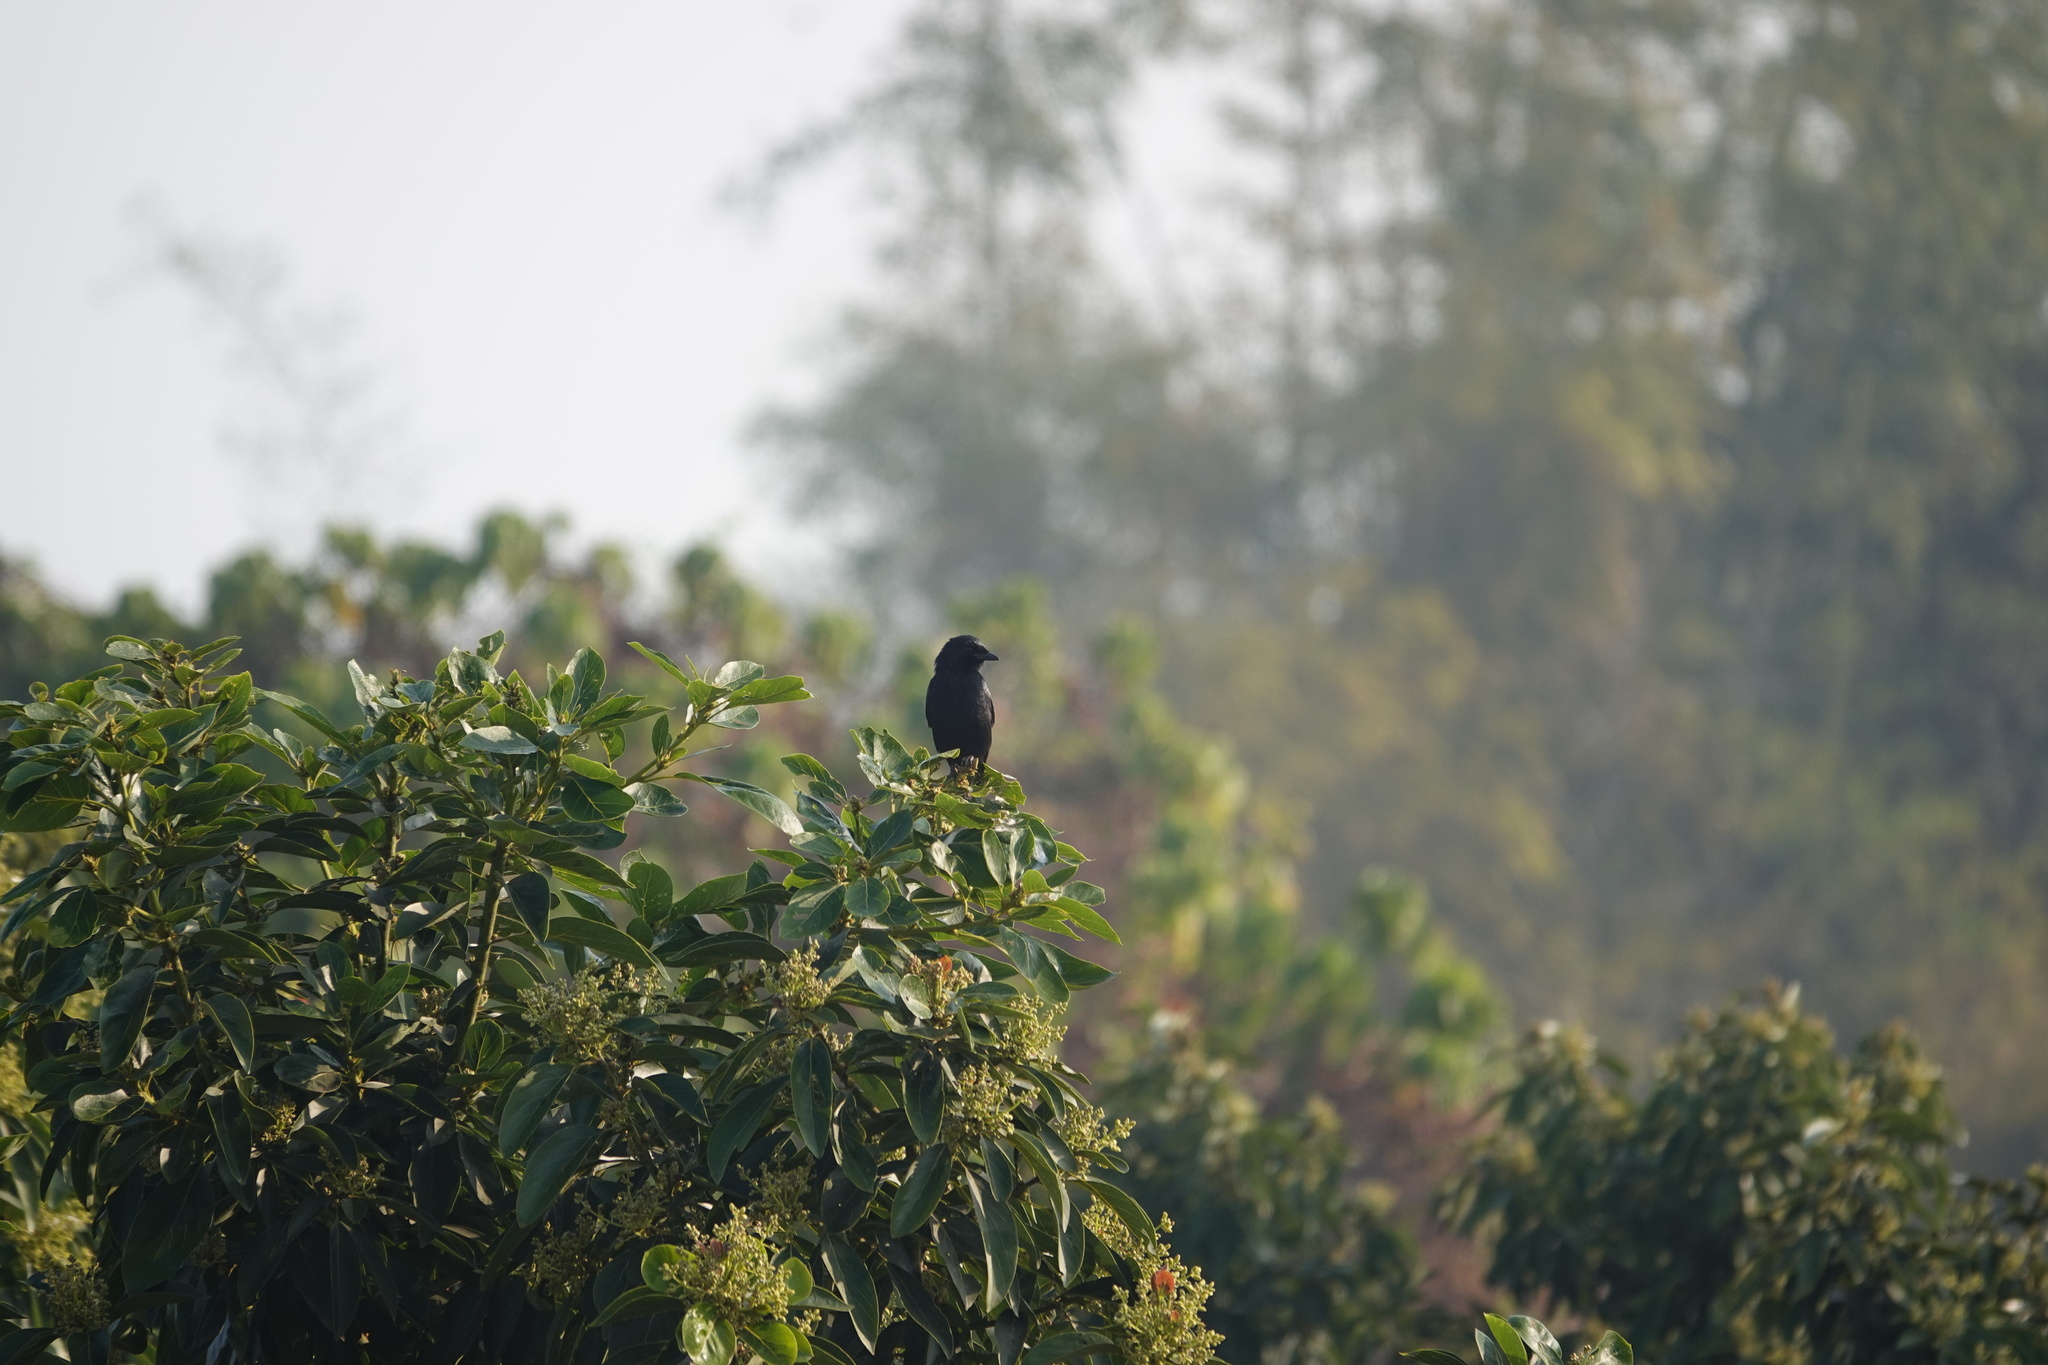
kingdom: Animalia
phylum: Chordata
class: Aves
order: Passeriformes
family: Dicruridae
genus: Dicrurus
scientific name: Dicrurus macrocercus
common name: Black drongo
